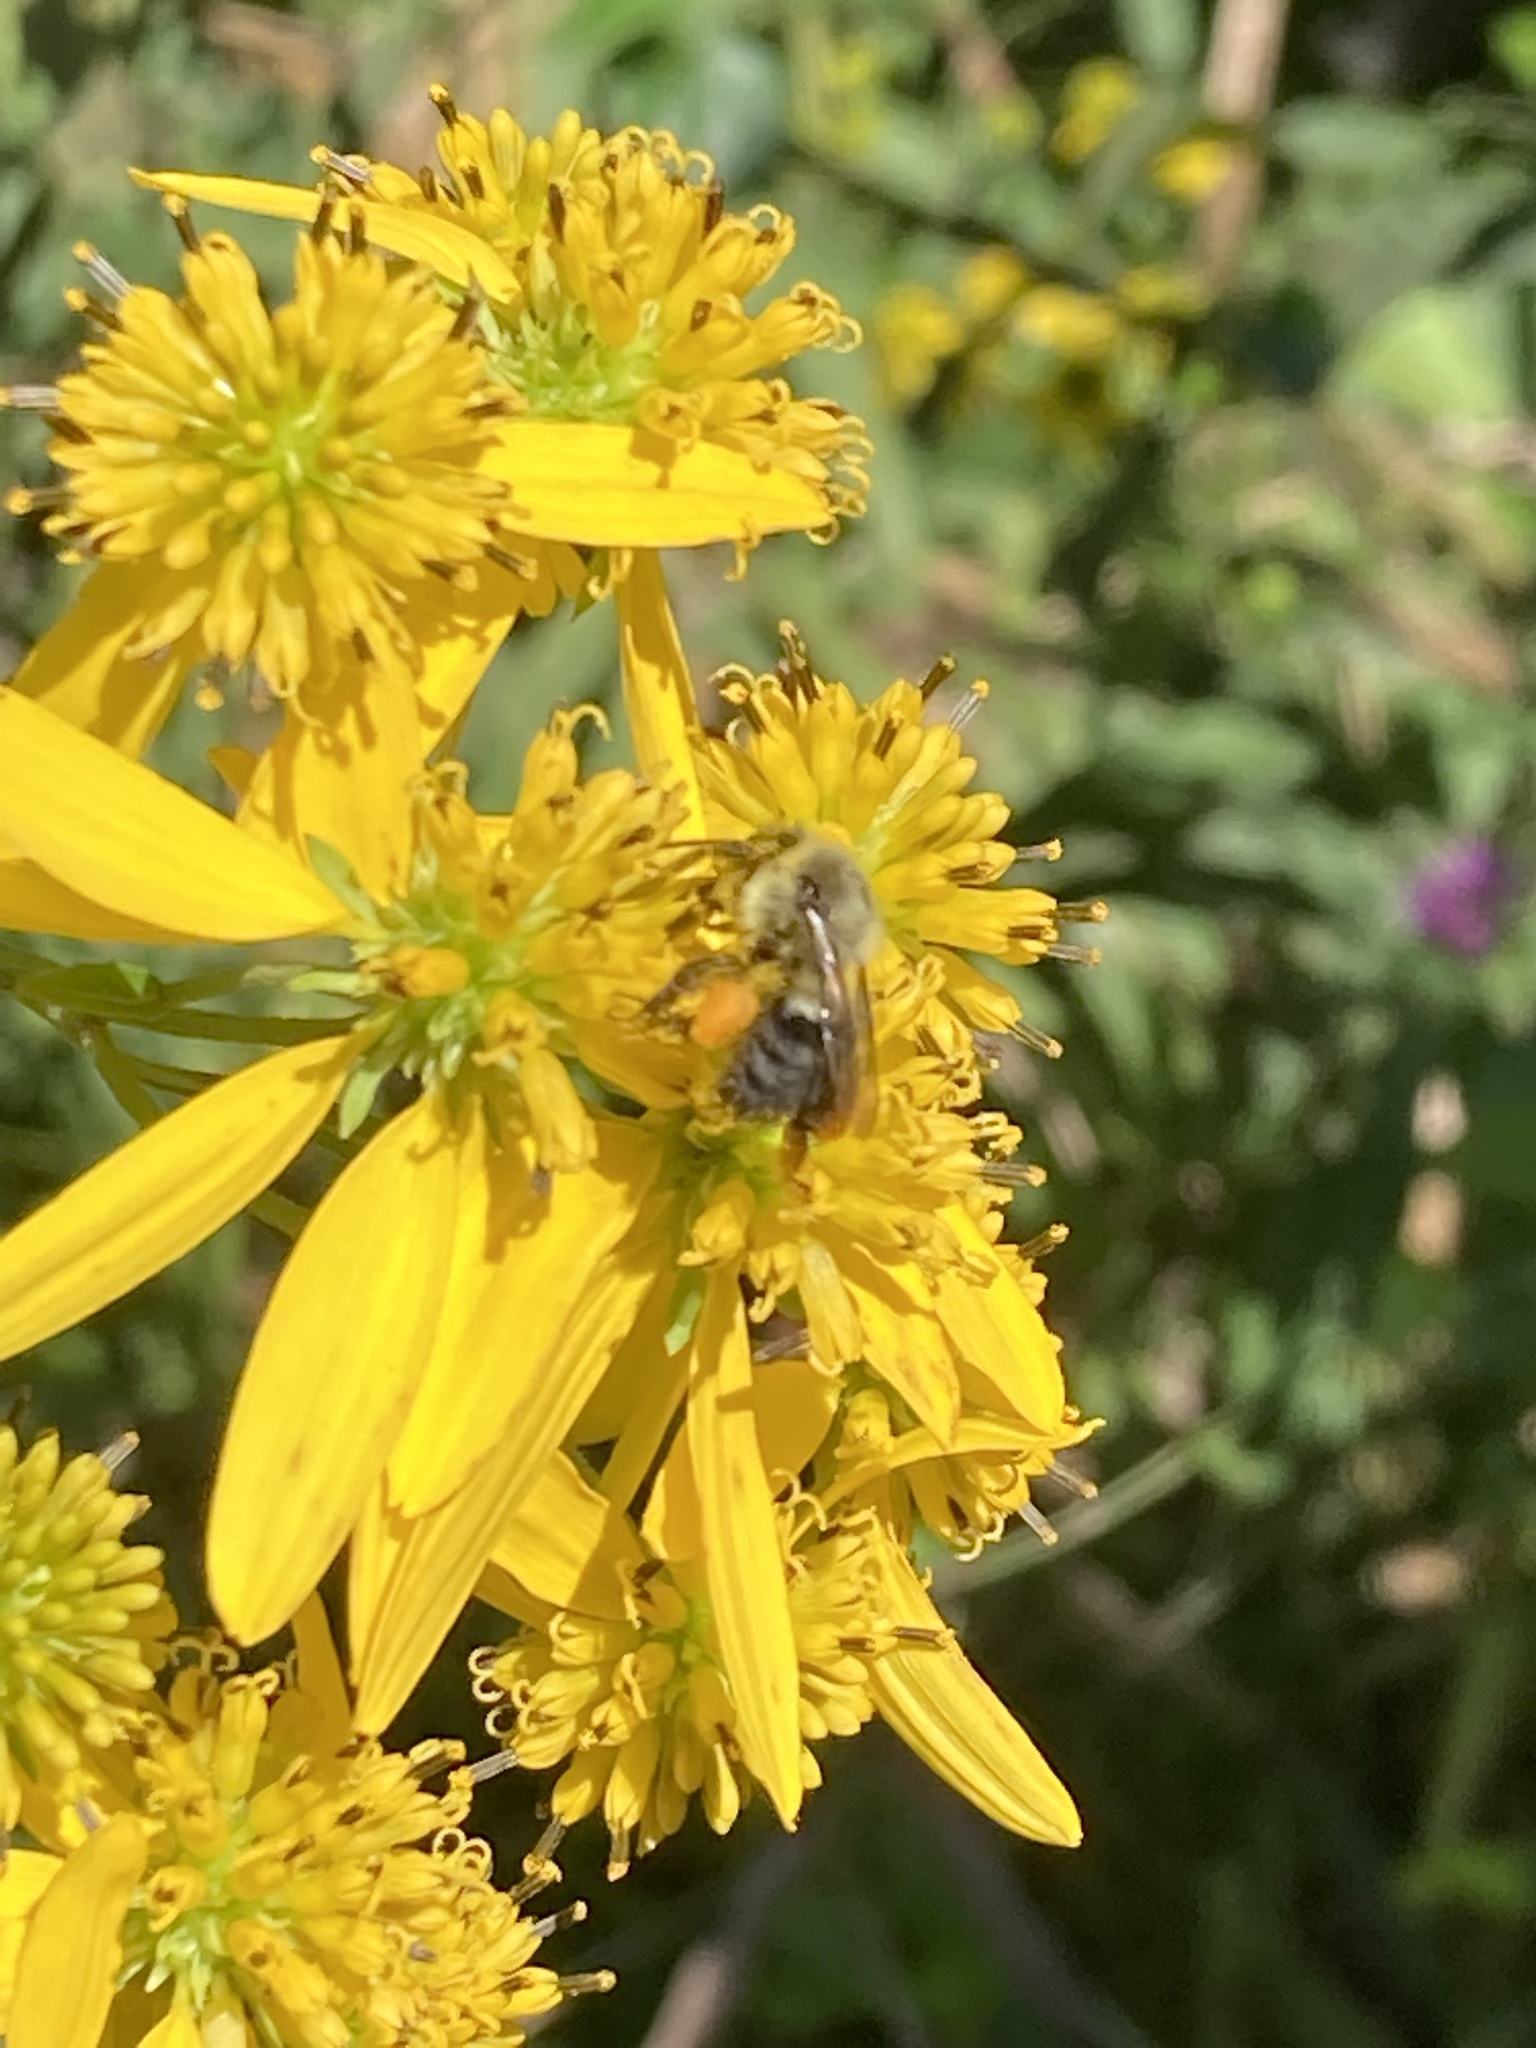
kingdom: Animalia
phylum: Arthropoda
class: Insecta
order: Hymenoptera
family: Apidae
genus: Bombus
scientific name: Bombus impatiens
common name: Common eastern bumble bee
